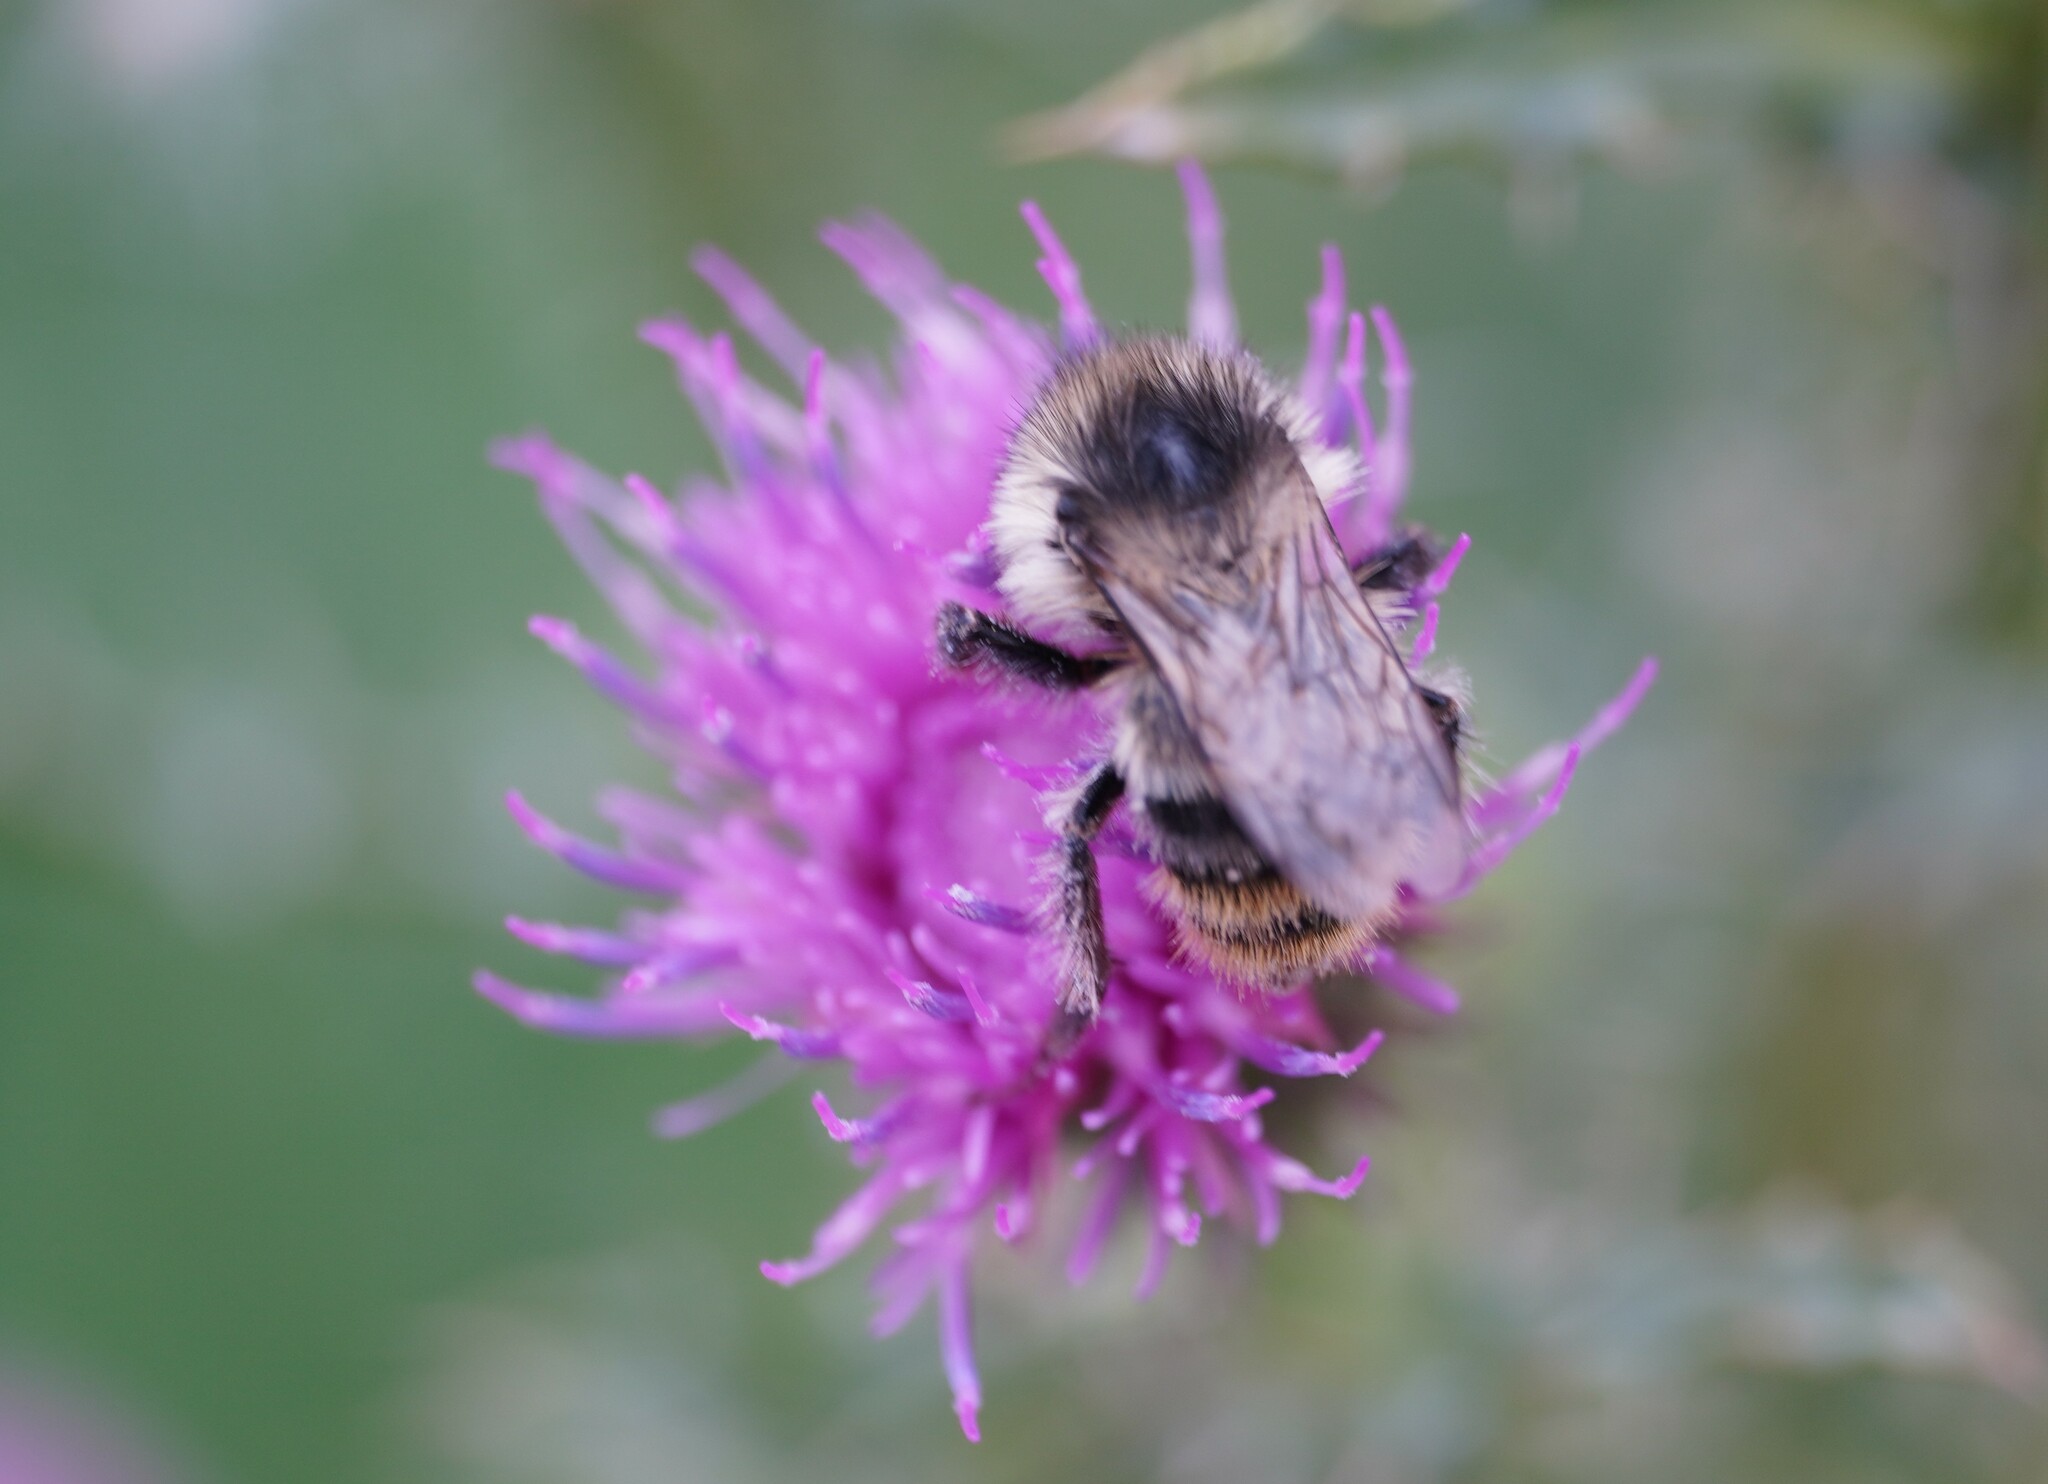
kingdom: Animalia
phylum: Arthropoda
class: Insecta
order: Hymenoptera
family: Apidae
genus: Bombus
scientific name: Bombus sylvarum
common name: Shrill carder bee
